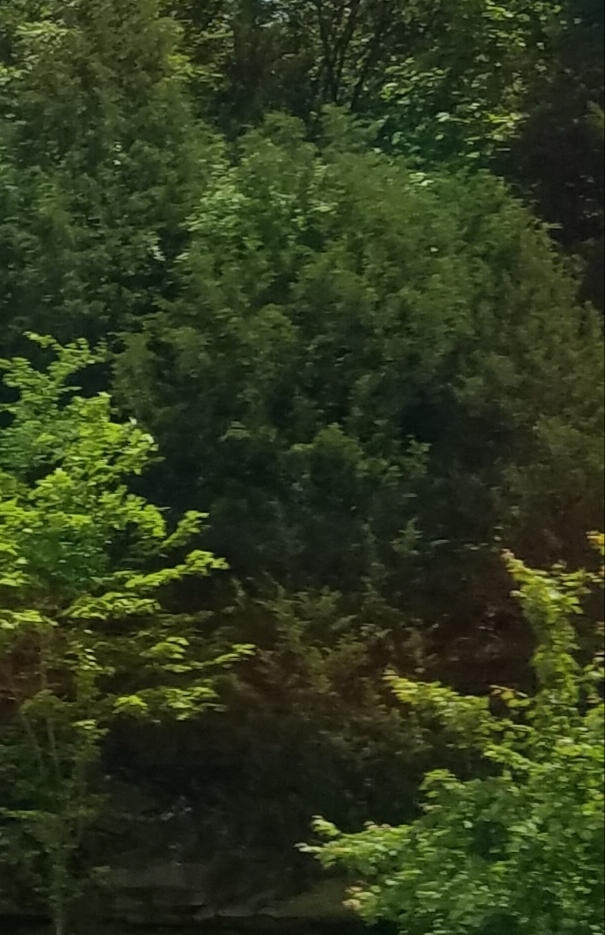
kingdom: Plantae
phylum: Tracheophyta
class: Pinopsida
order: Pinales
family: Cupressaceae
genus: Juniperus
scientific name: Juniperus virginiana
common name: Red juniper
